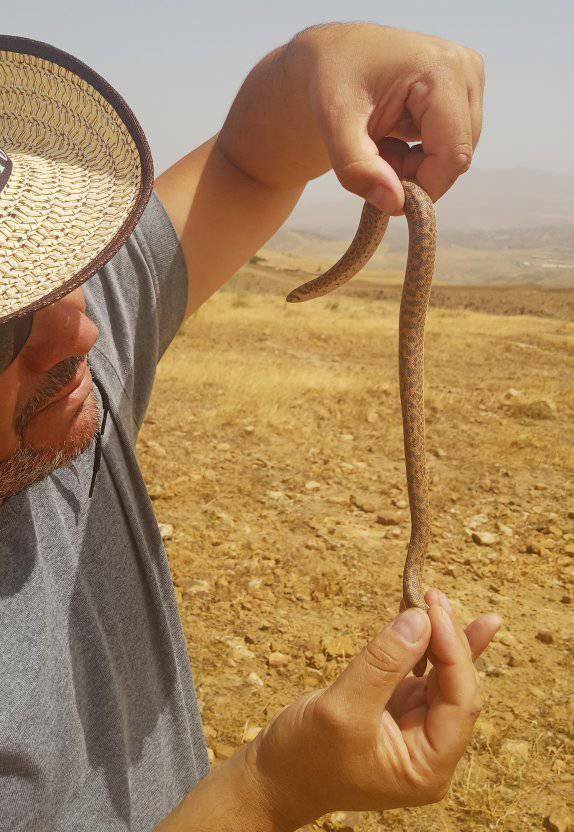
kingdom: Animalia
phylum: Chordata
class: Squamata
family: Boidae
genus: Eryx
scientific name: Eryx jaculus
